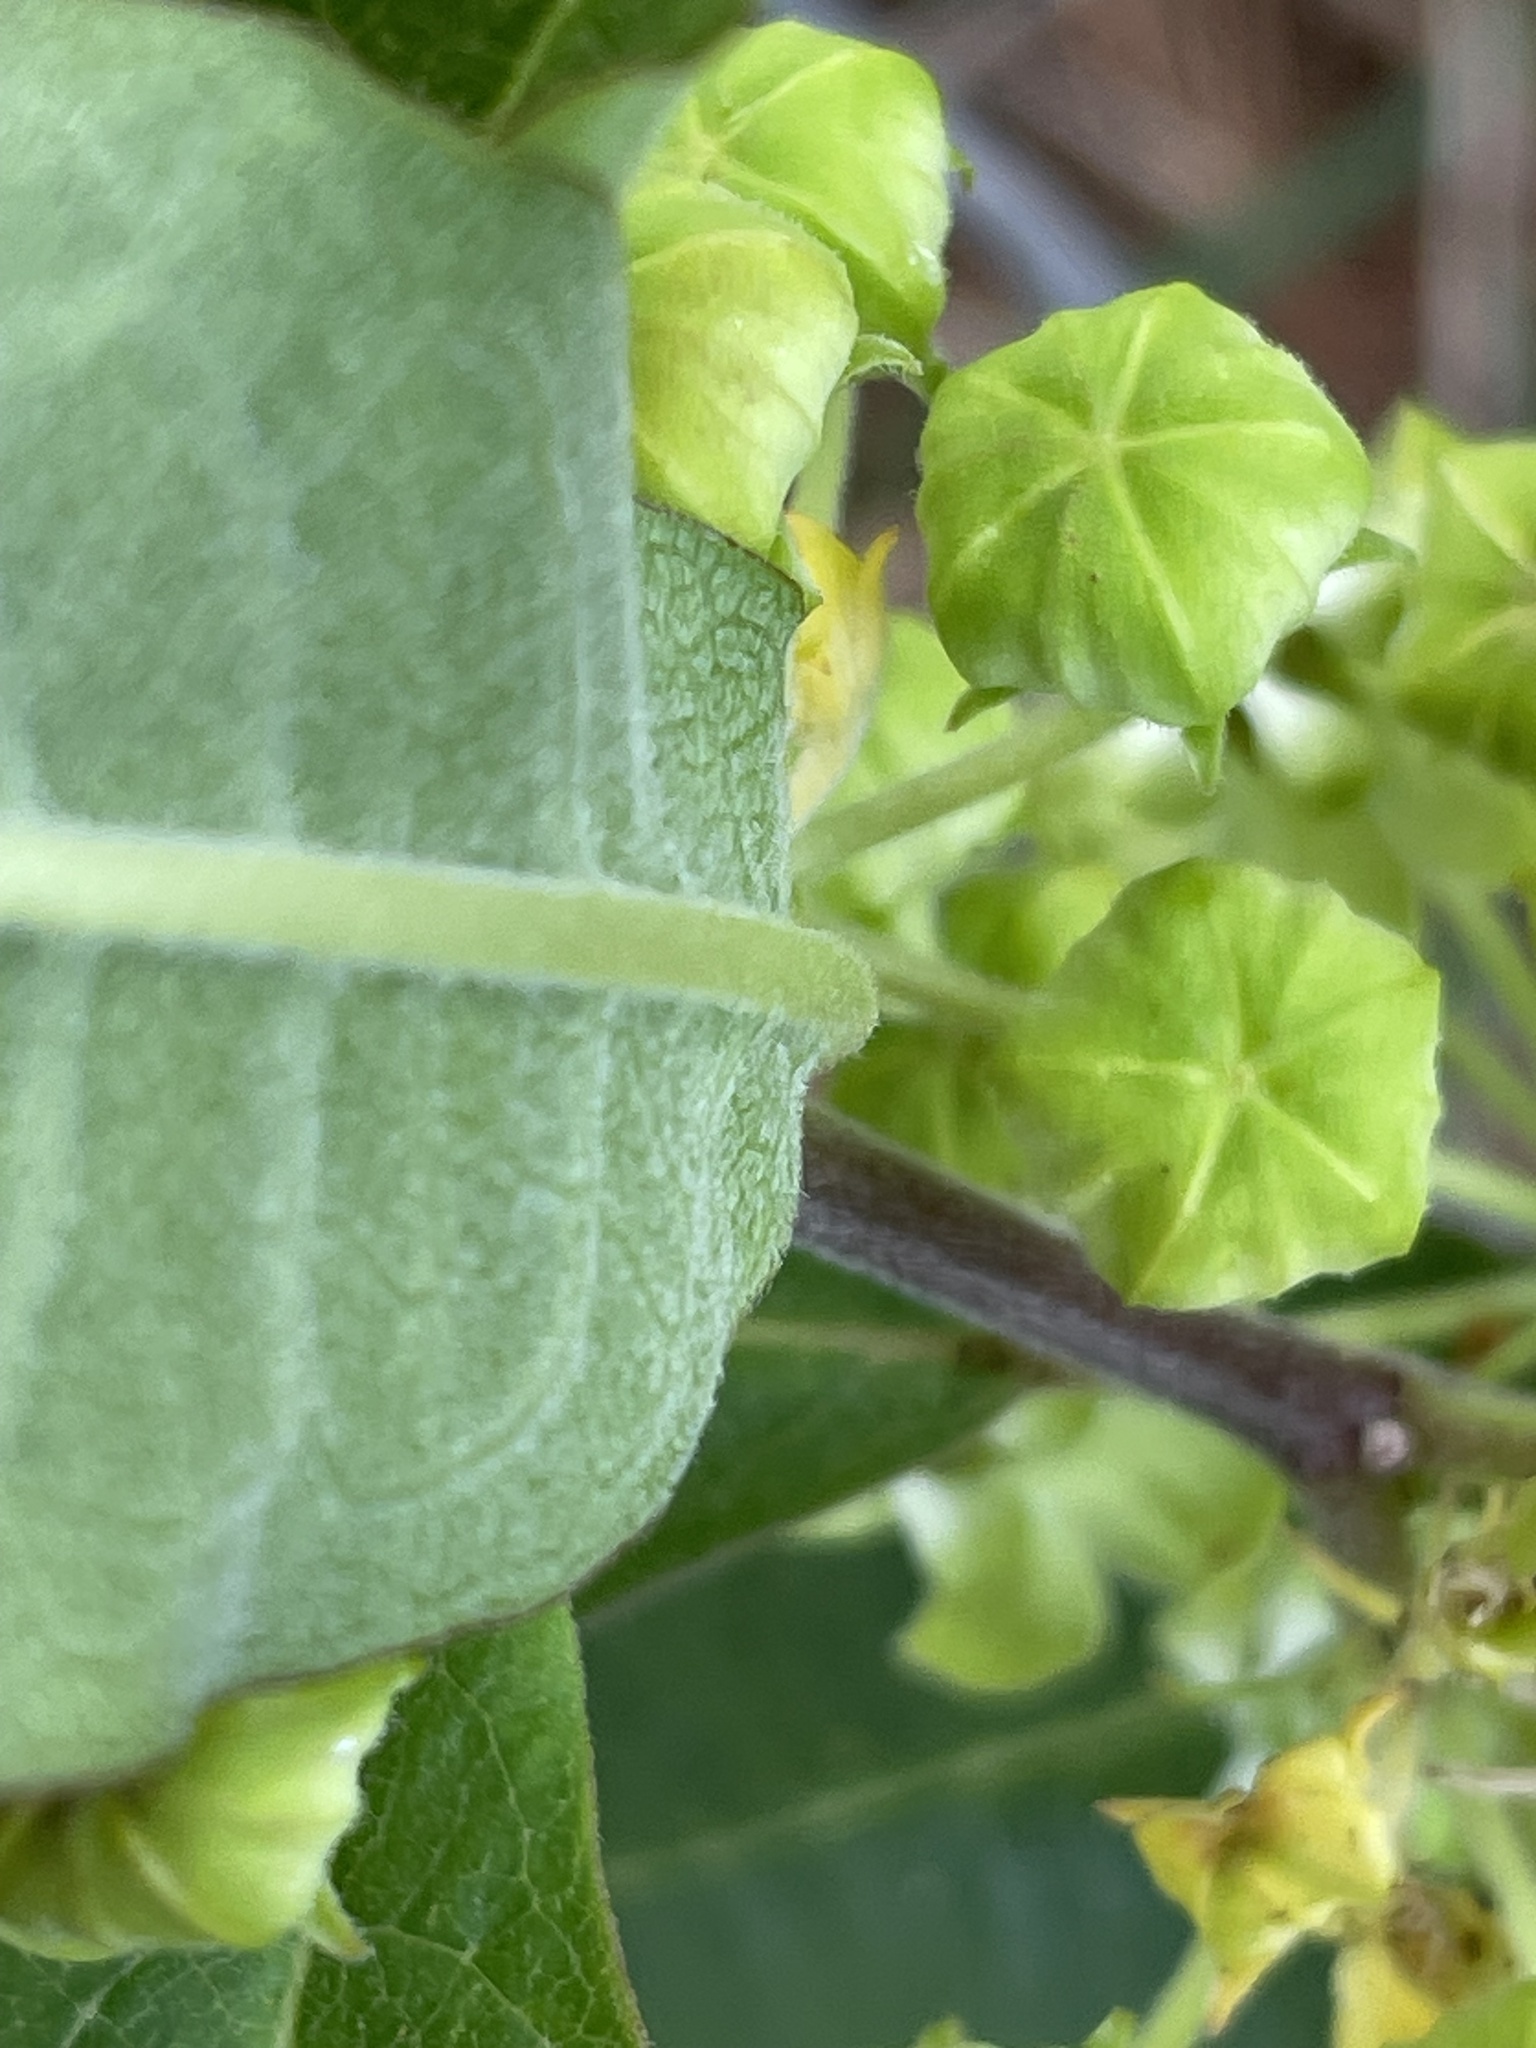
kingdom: Plantae
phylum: Tracheophyta
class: Magnoliopsida
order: Gentianales
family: Apocynaceae
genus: Asclepias
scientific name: Asclepias tomentosa
